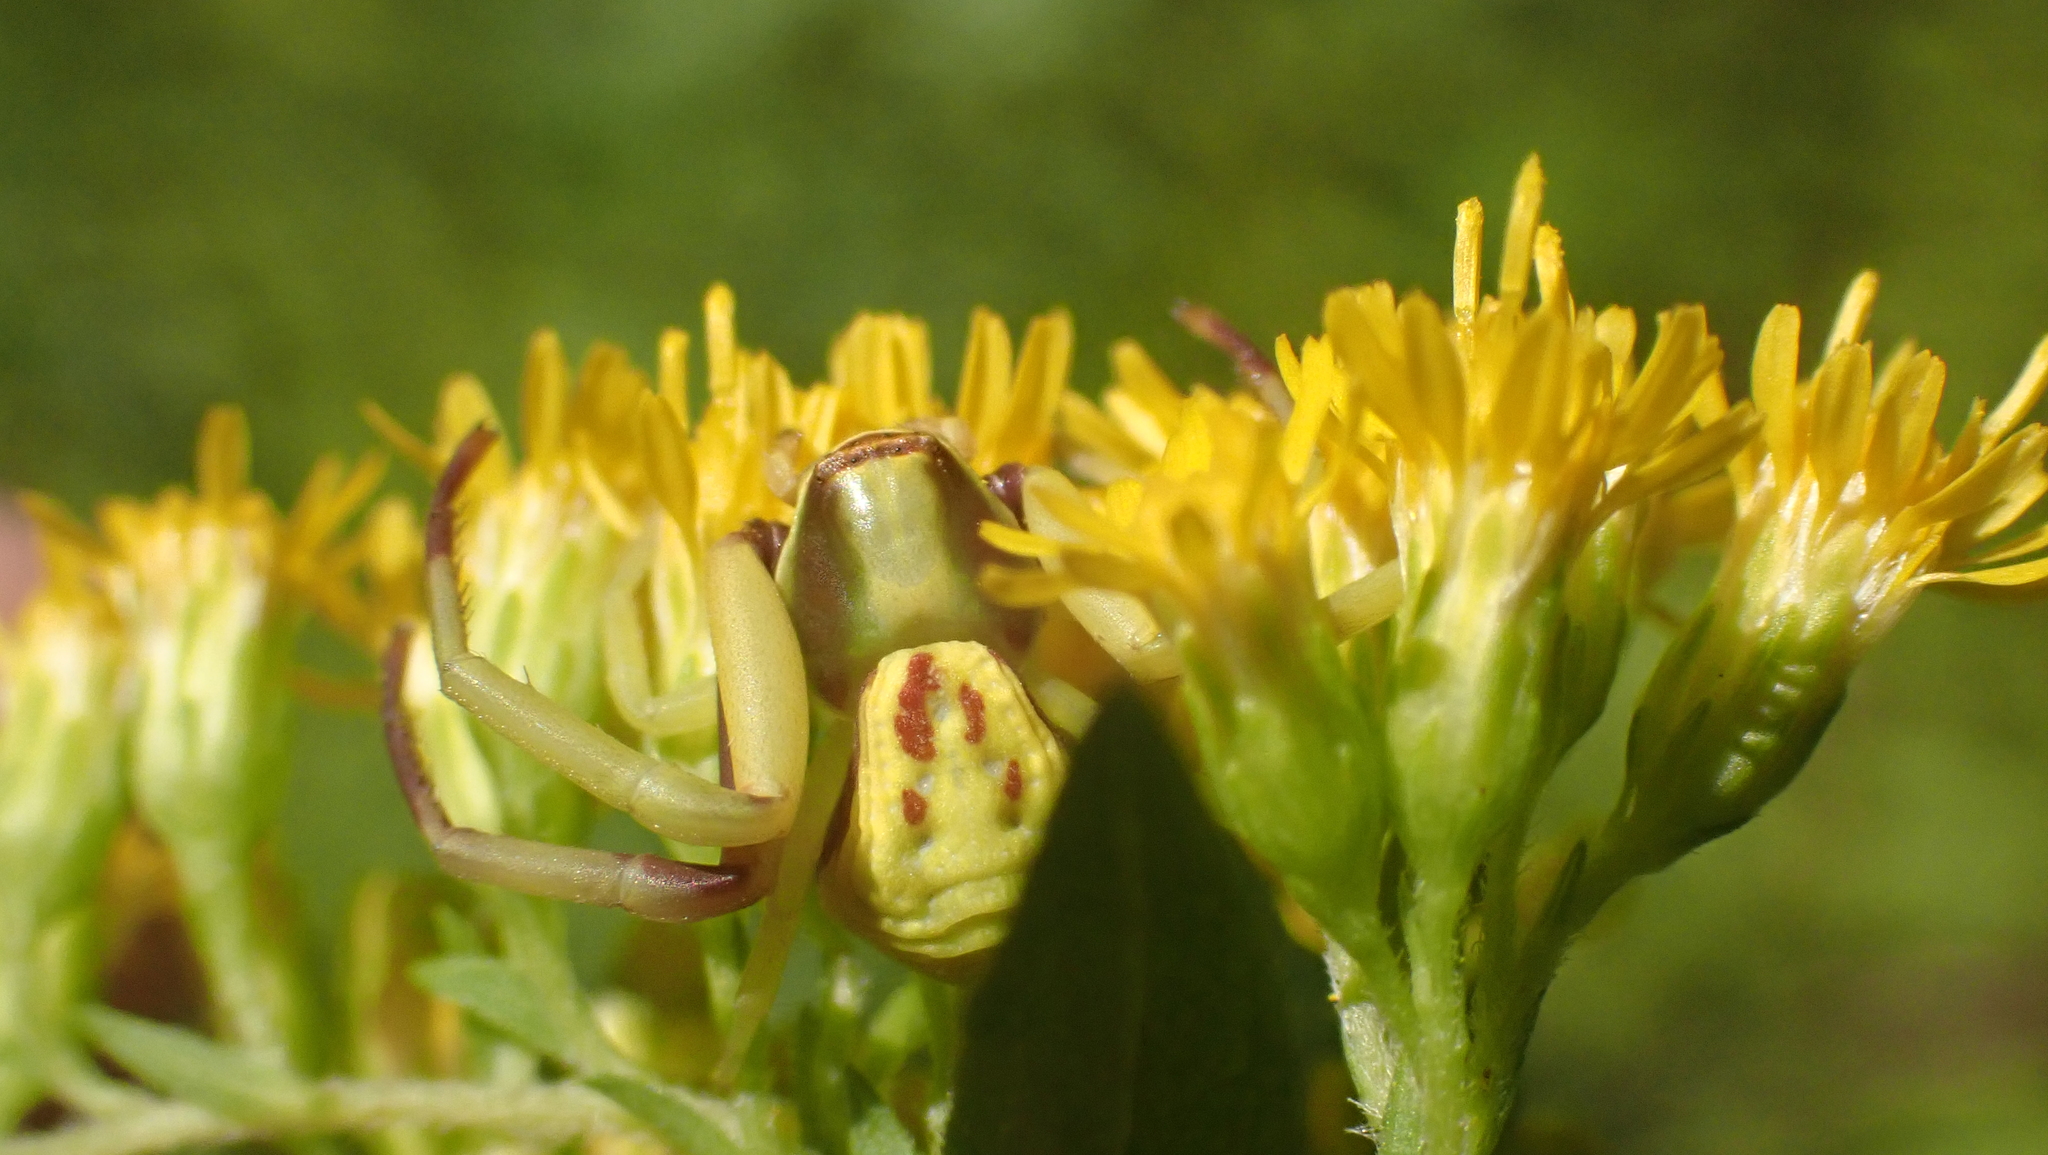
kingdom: Animalia
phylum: Arthropoda
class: Arachnida
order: Araneae
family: Thomisidae
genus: Misumenoides
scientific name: Misumenoides formosipes
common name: White-banded crab spider
